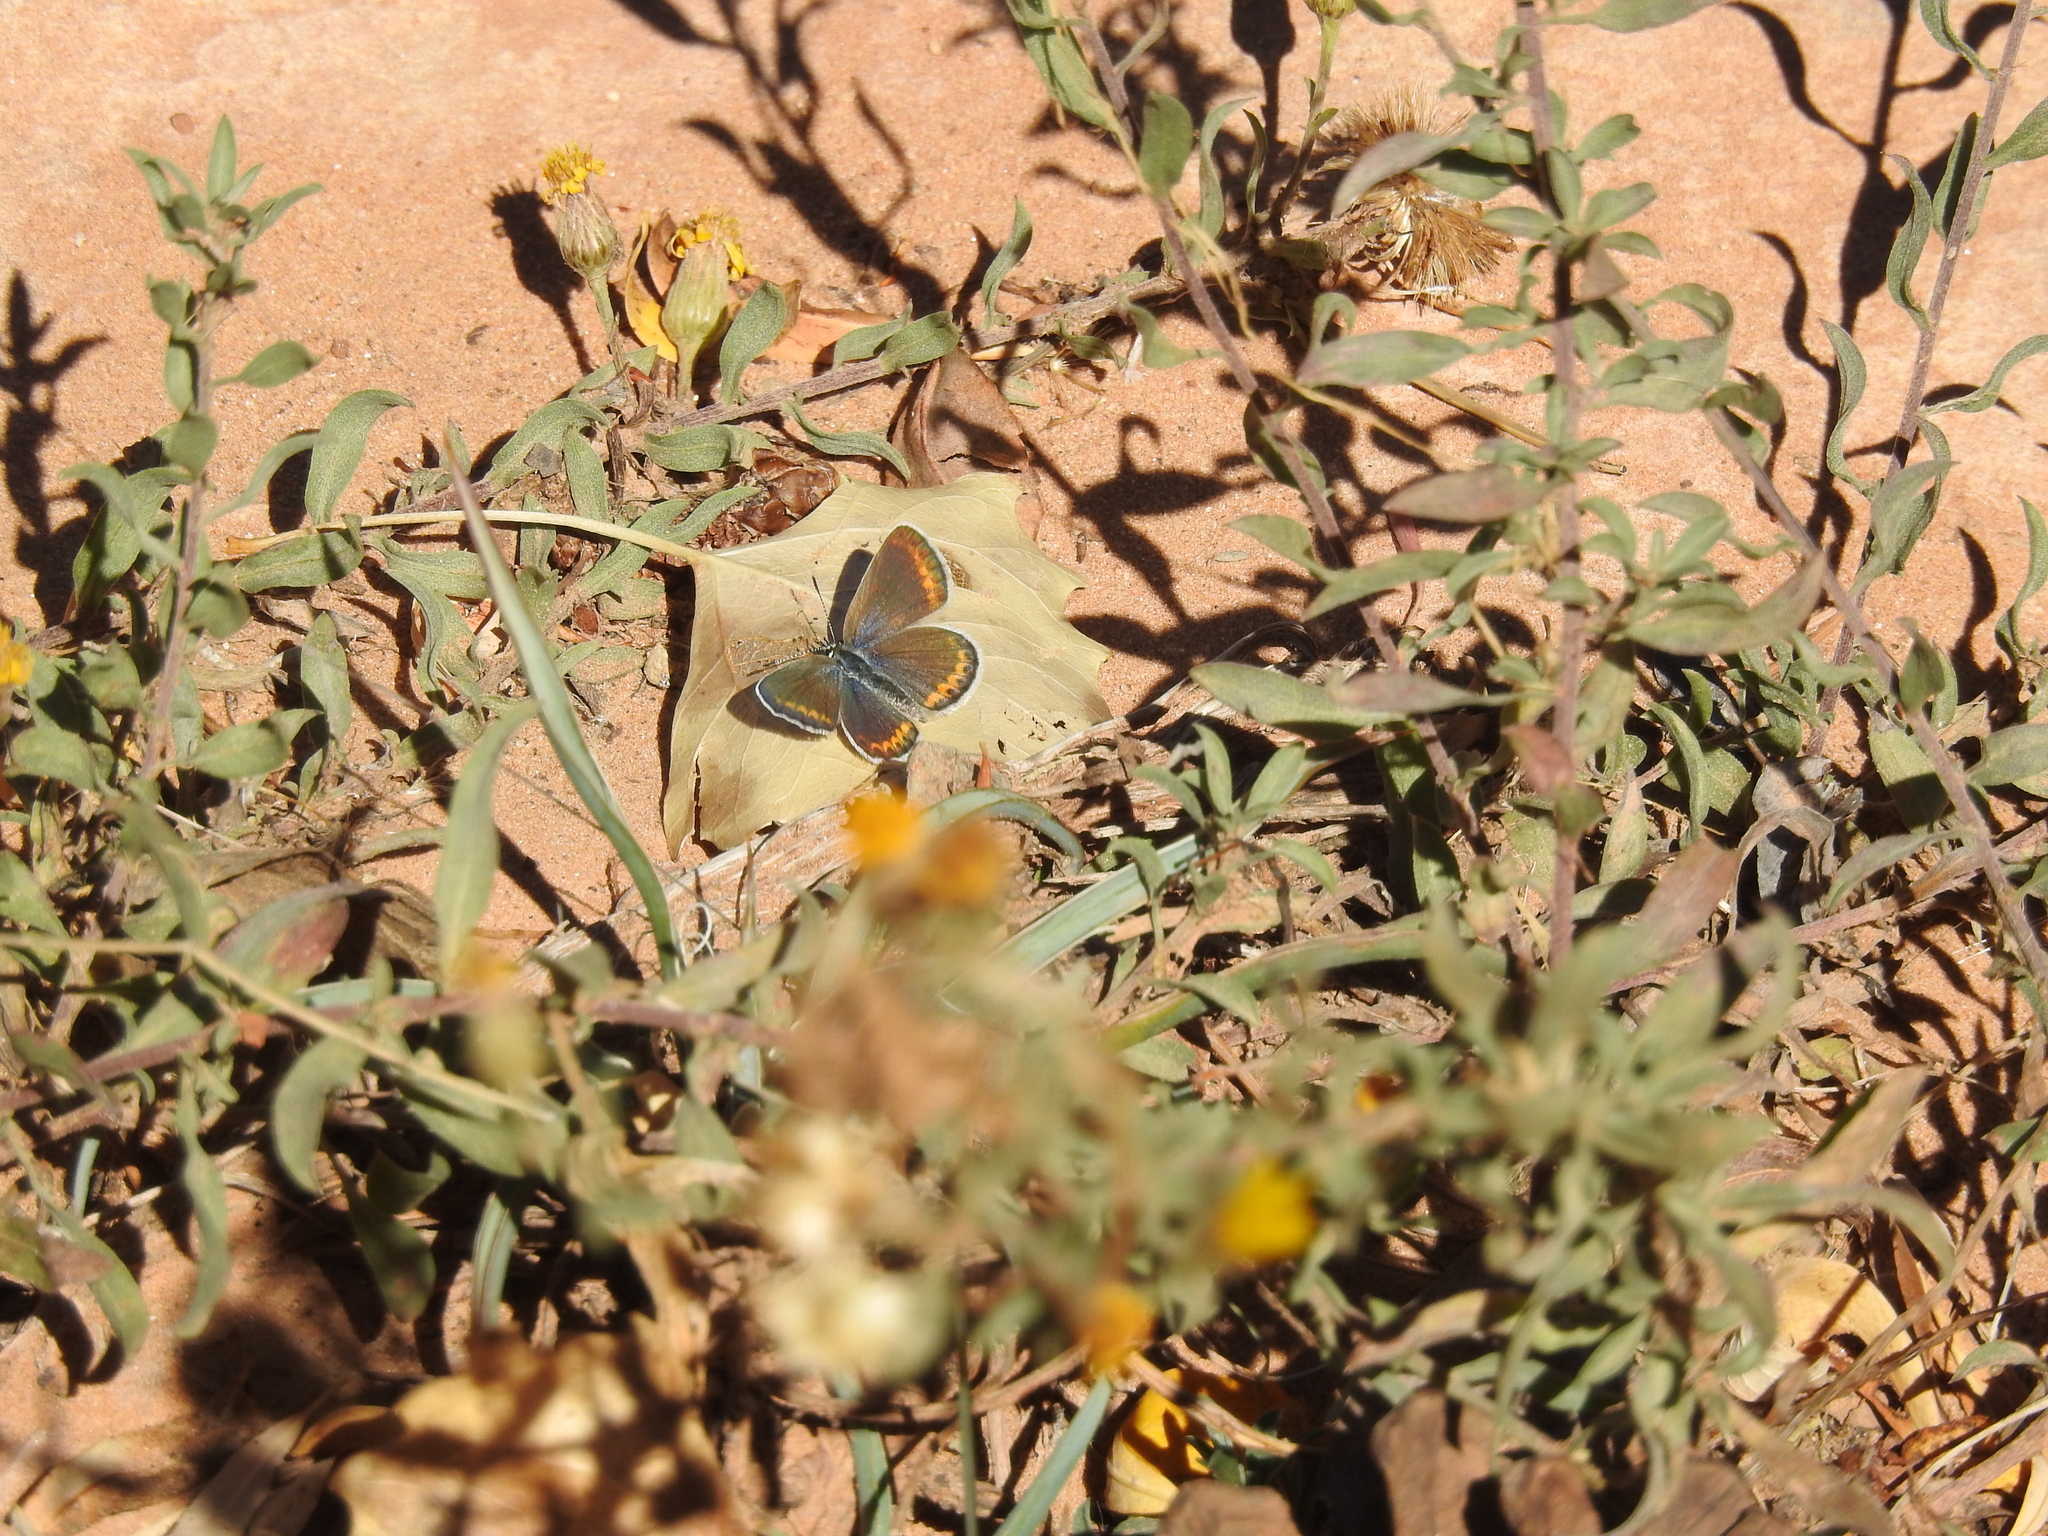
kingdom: Animalia
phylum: Arthropoda
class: Insecta
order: Lepidoptera
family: Lycaenidae
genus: Lycaeides
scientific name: Lycaeides melissa
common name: Melissa blue
